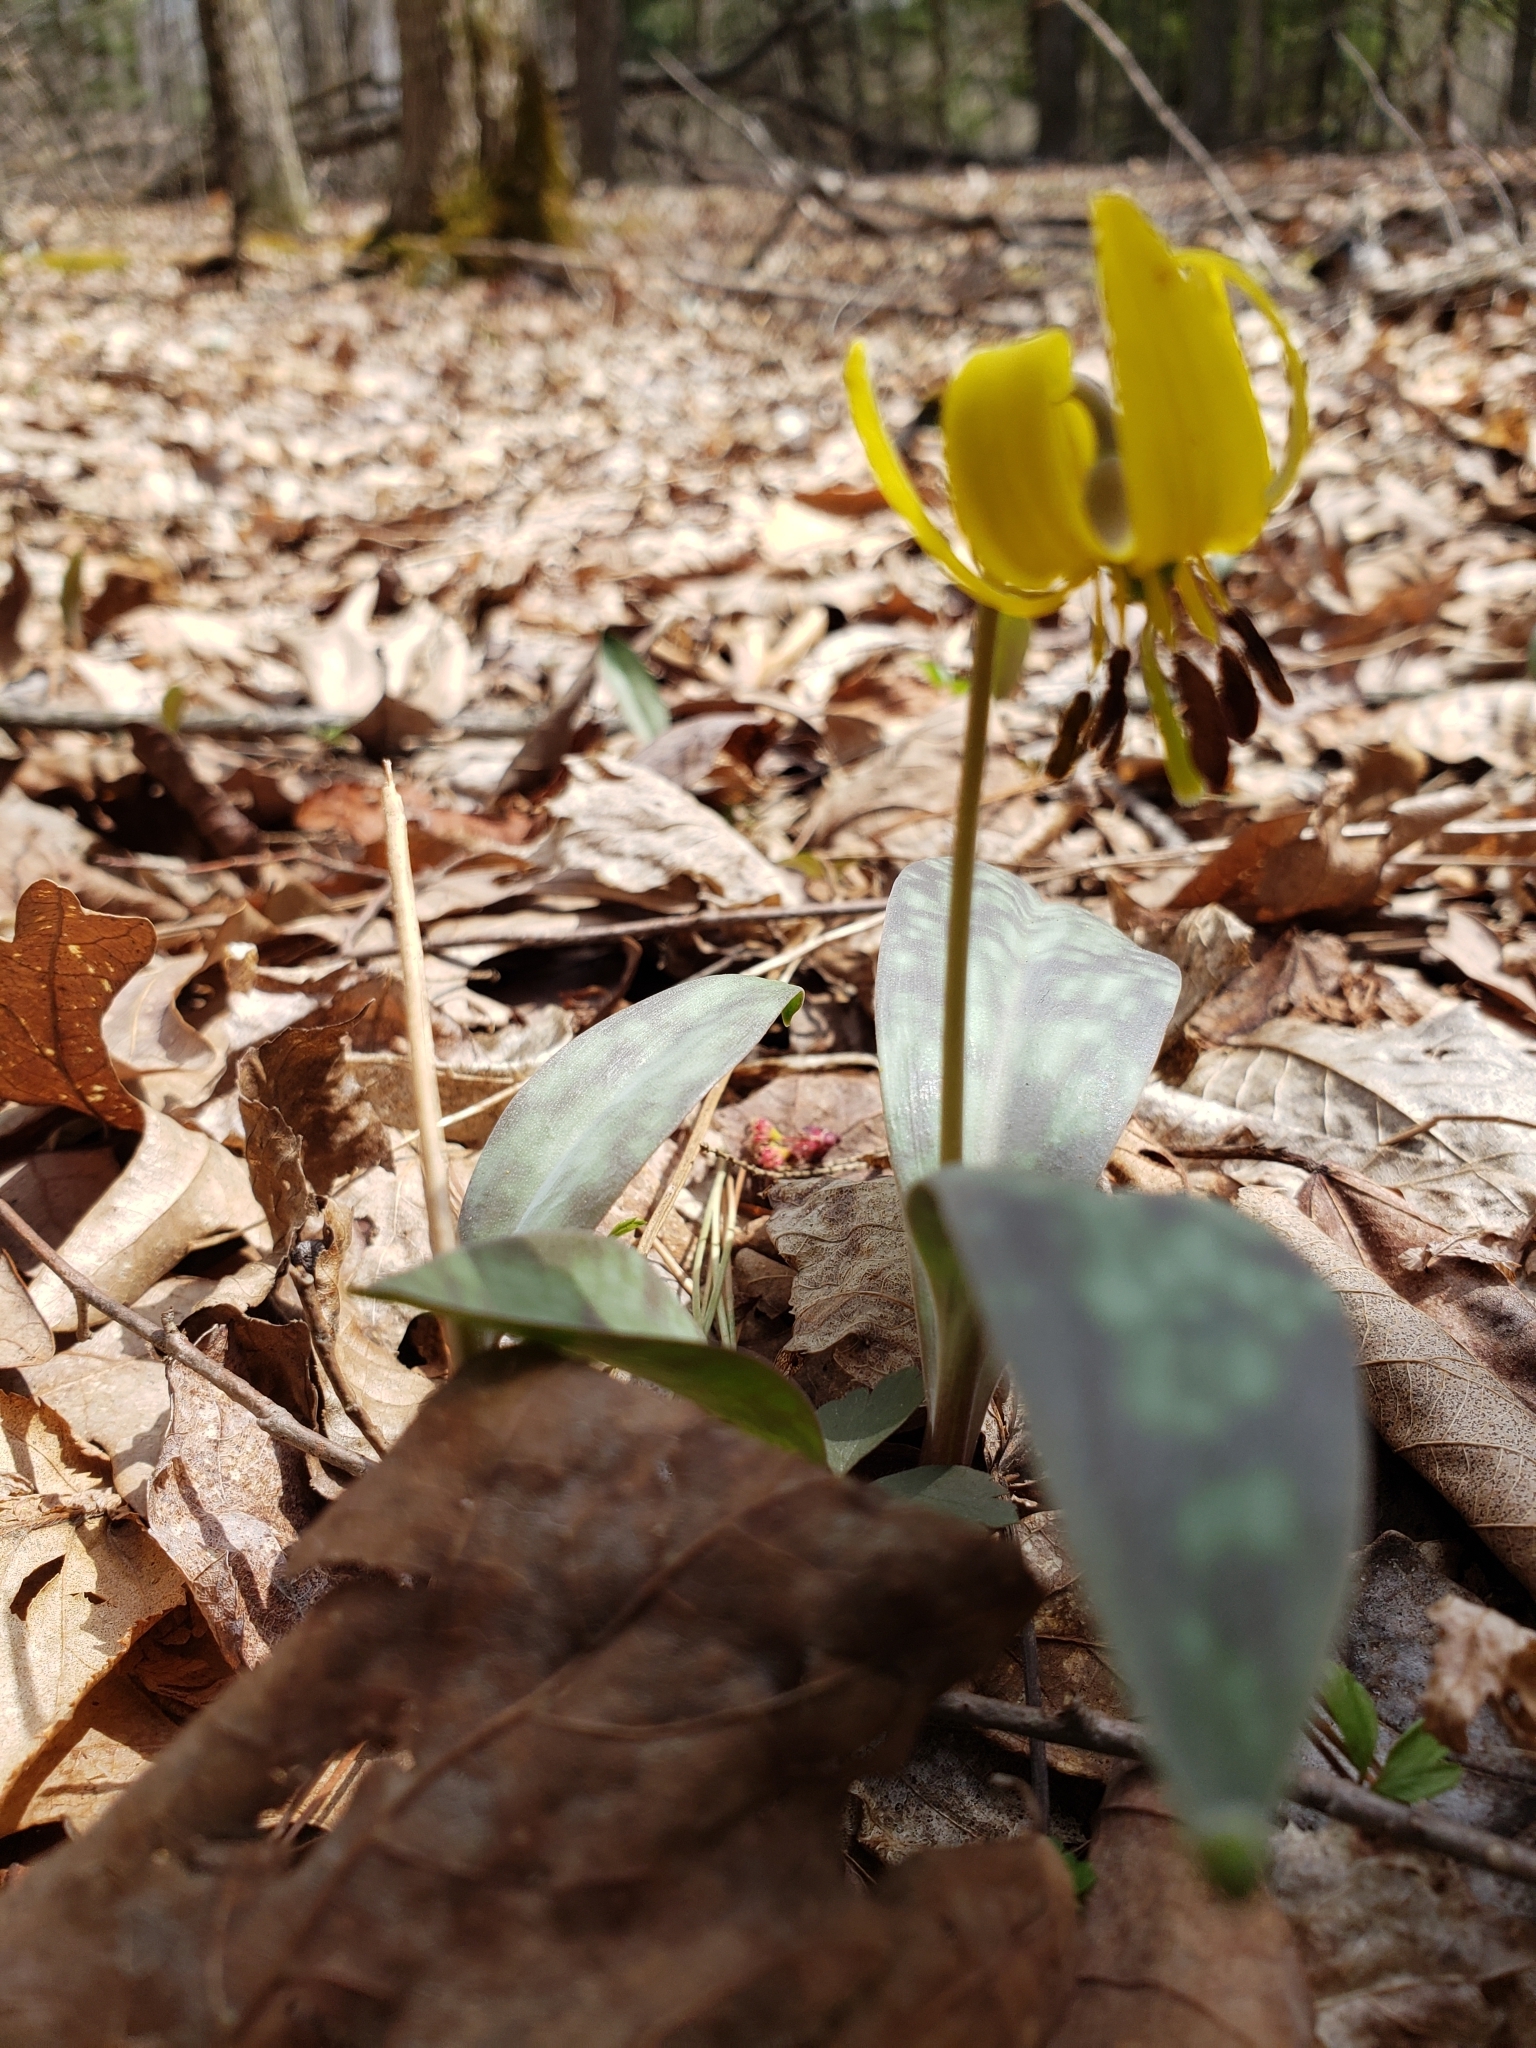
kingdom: Plantae
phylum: Tracheophyta
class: Liliopsida
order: Liliales
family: Liliaceae
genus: Erythronium
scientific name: Erythronium americanum
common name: Yellow adder's-tongue
